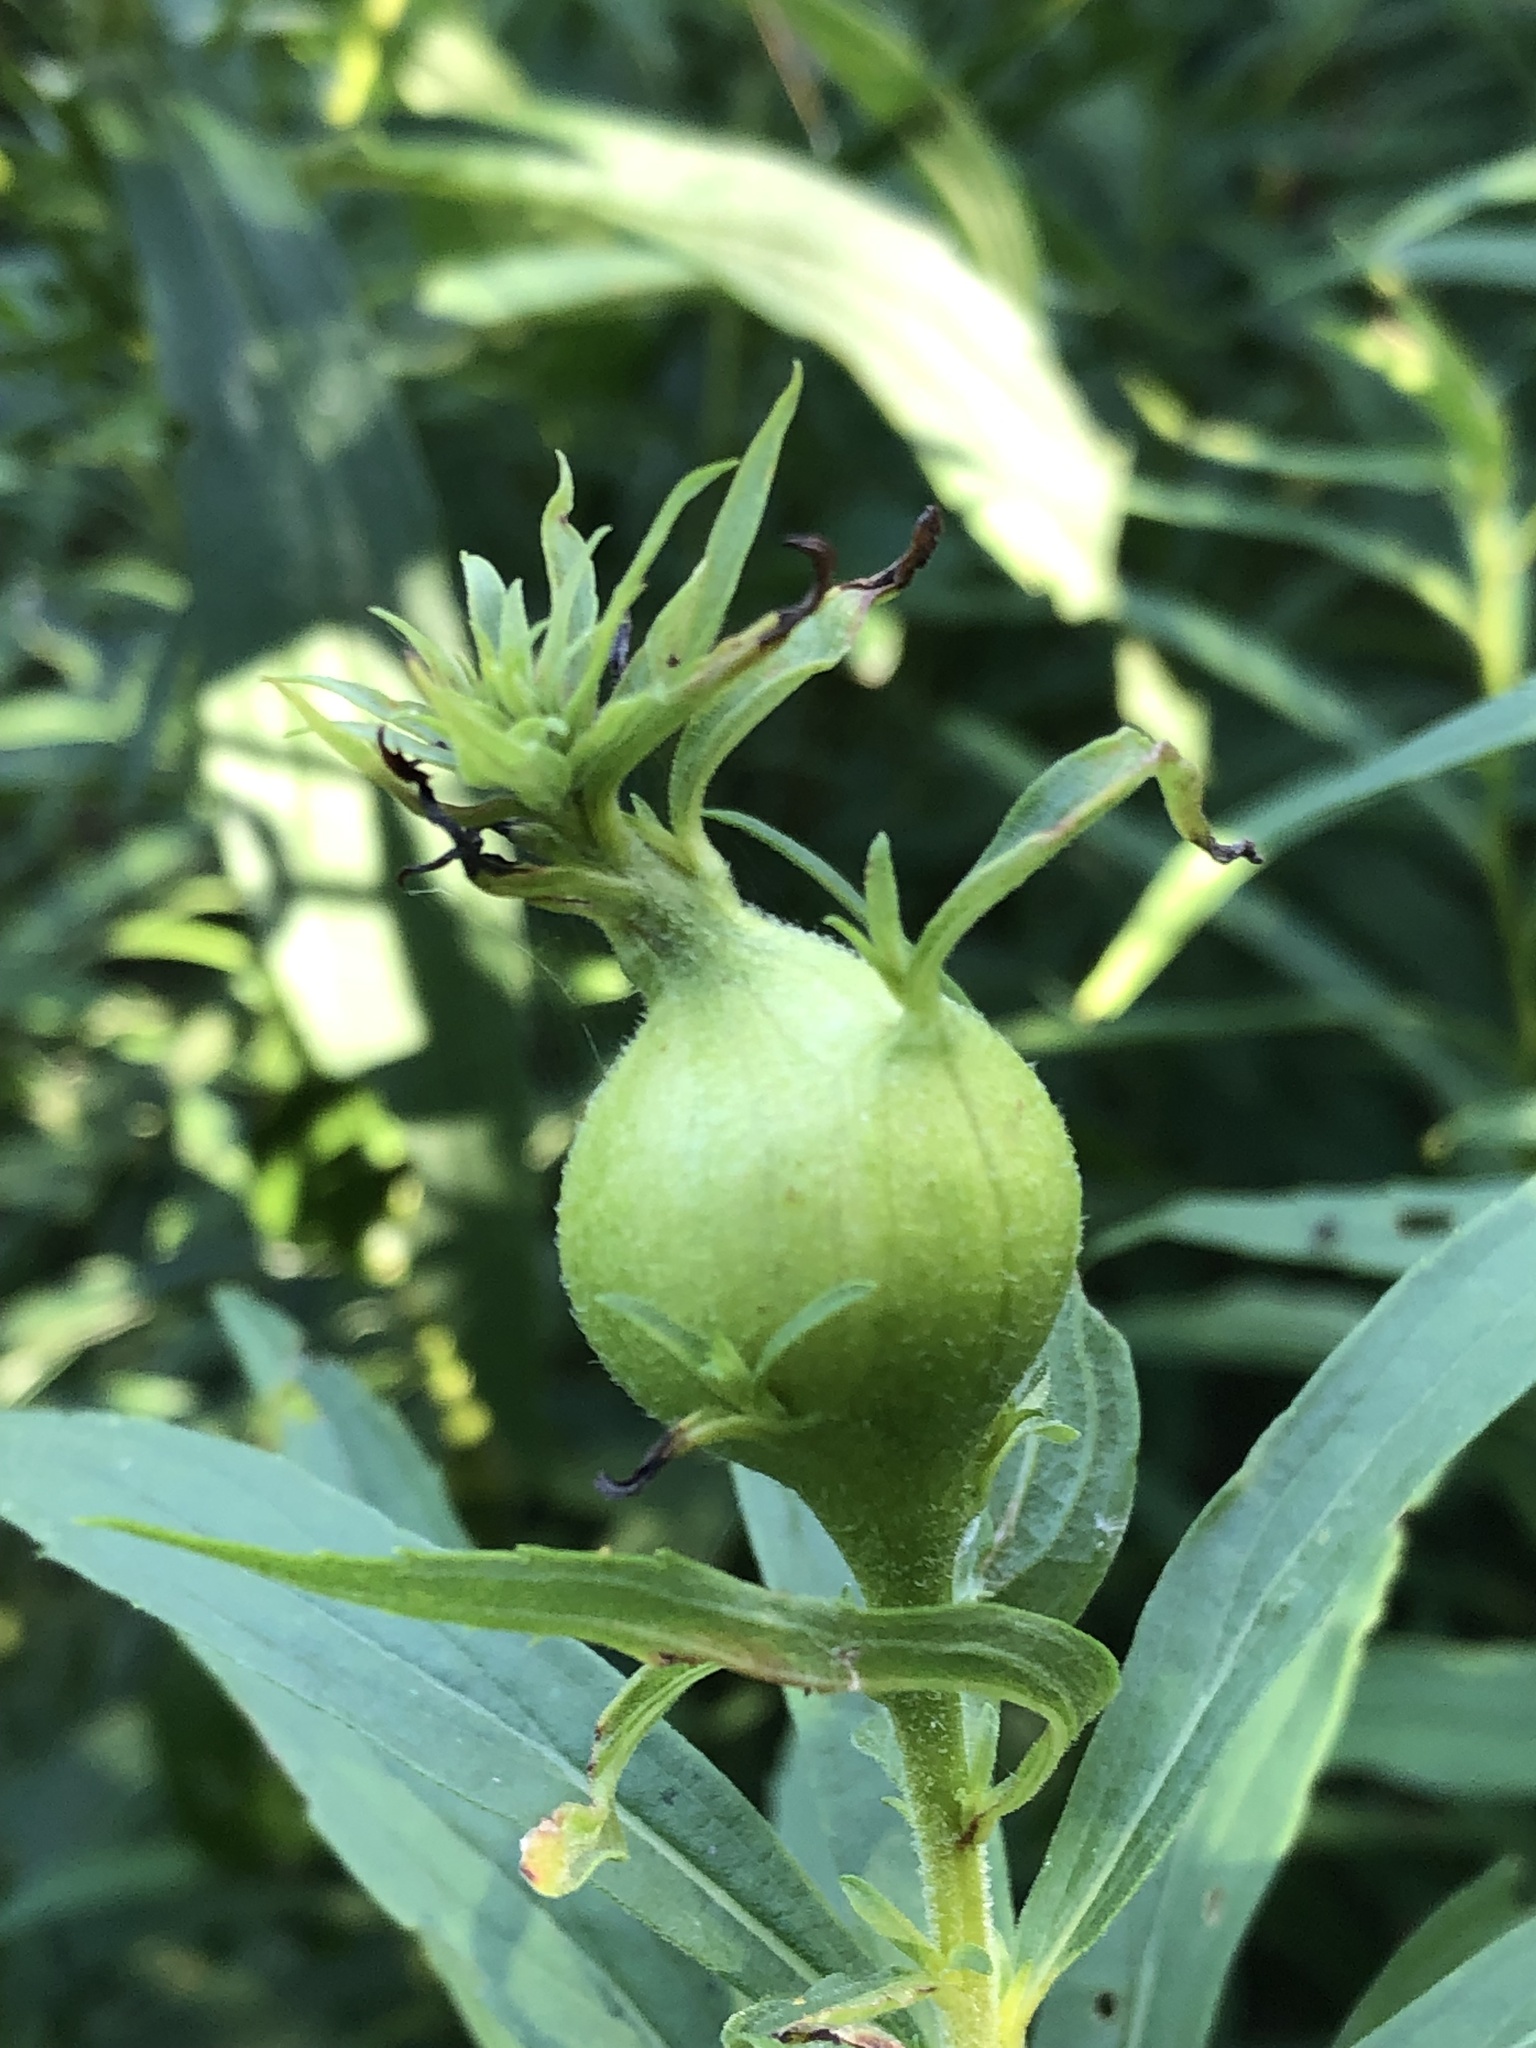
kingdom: Animalia
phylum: Arthropoda
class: Insecta
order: Diptera
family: Tephritidae
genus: Eurosta
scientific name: Eurosta solidaginis
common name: Goldenrod gall fly
